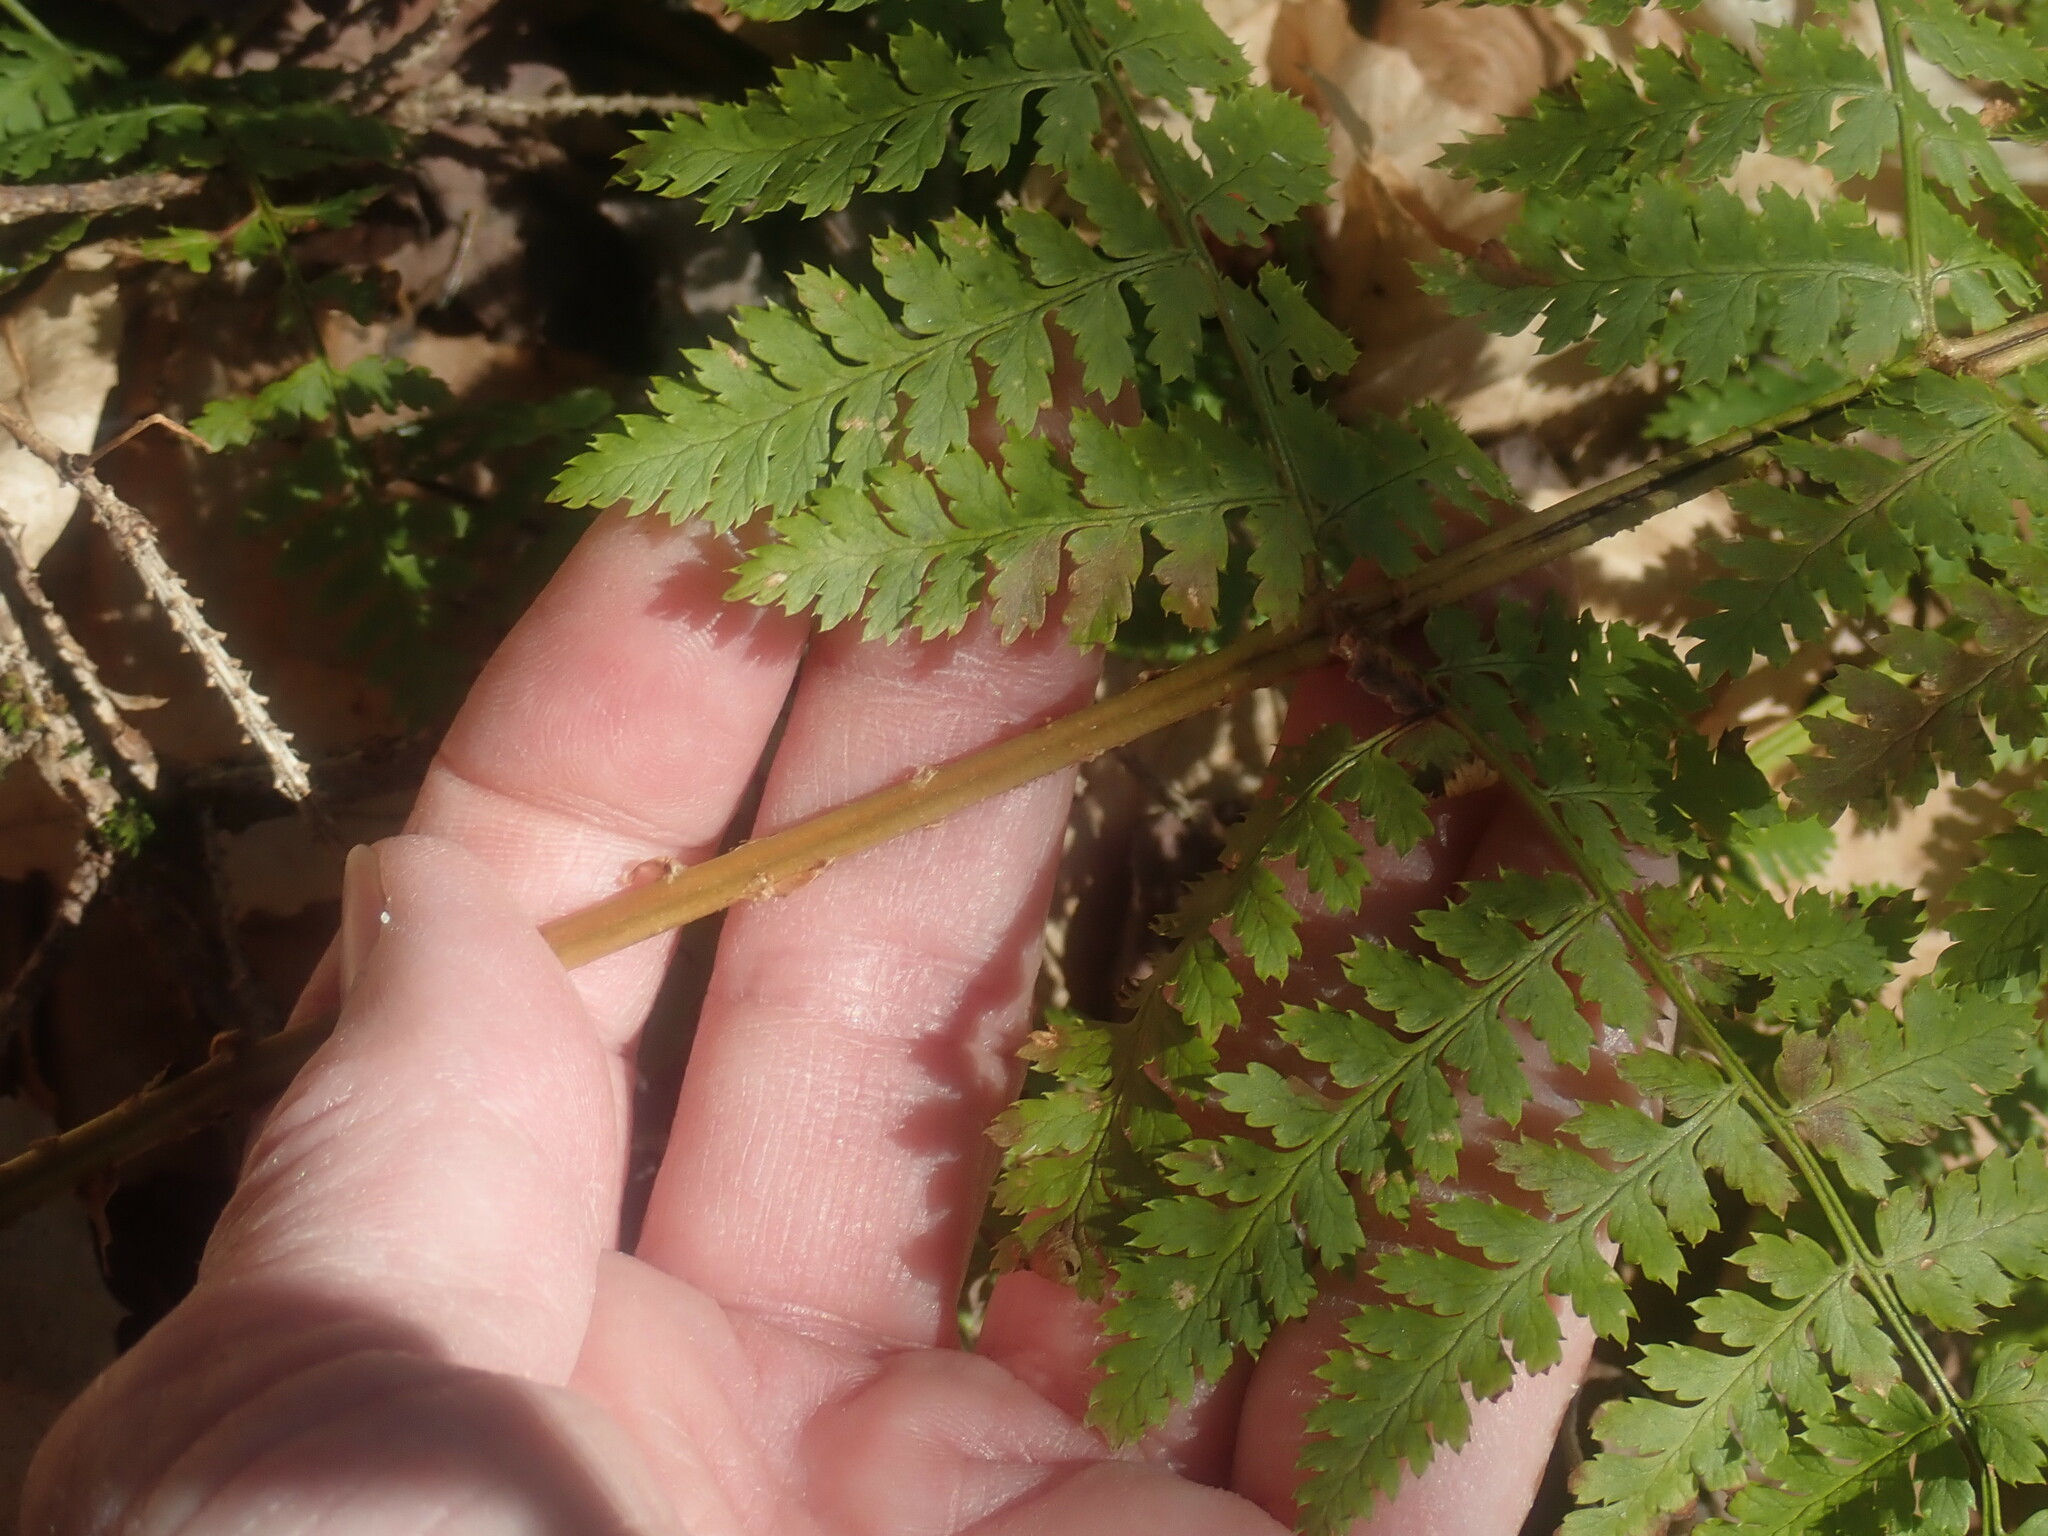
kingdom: Plantae
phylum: Tracheophyta
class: Polypodiopsida
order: Polypodiales
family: Dryopteridaceae
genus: Dryopteris
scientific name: Dryopteris intermedia
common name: Evergreen wood fern
